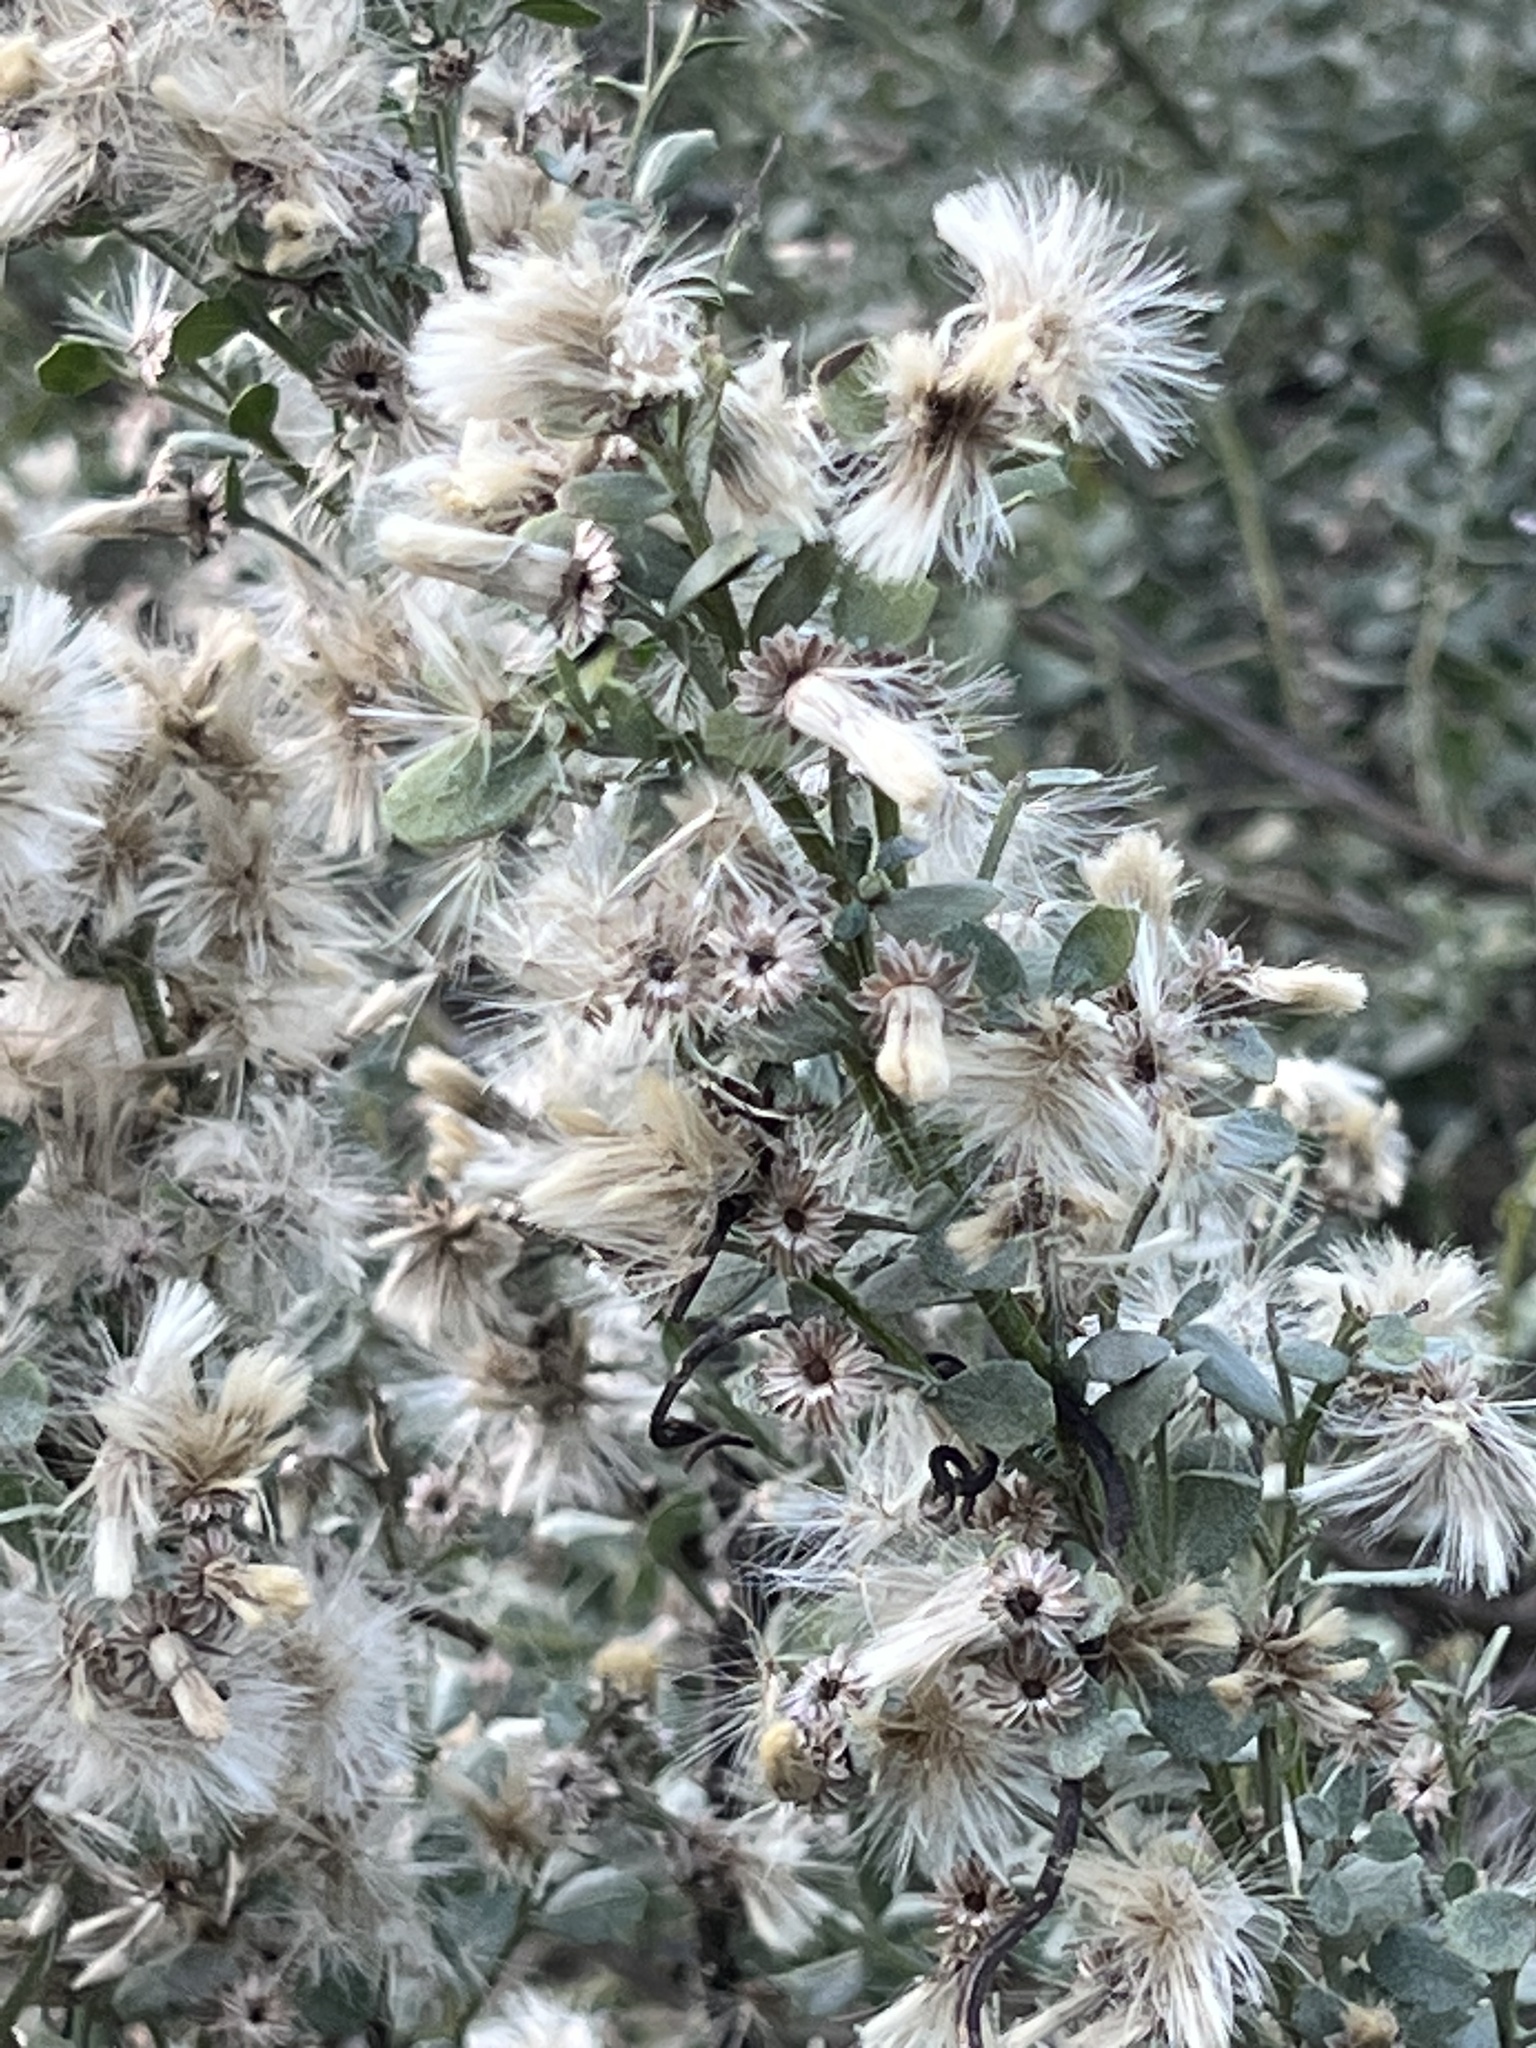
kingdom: Plantae
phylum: Tracheophyta
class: Magnoliopsida
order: Asterales
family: Asteraceae
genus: Baccharis
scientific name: Baccharis pilularis
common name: Coyotebrush
